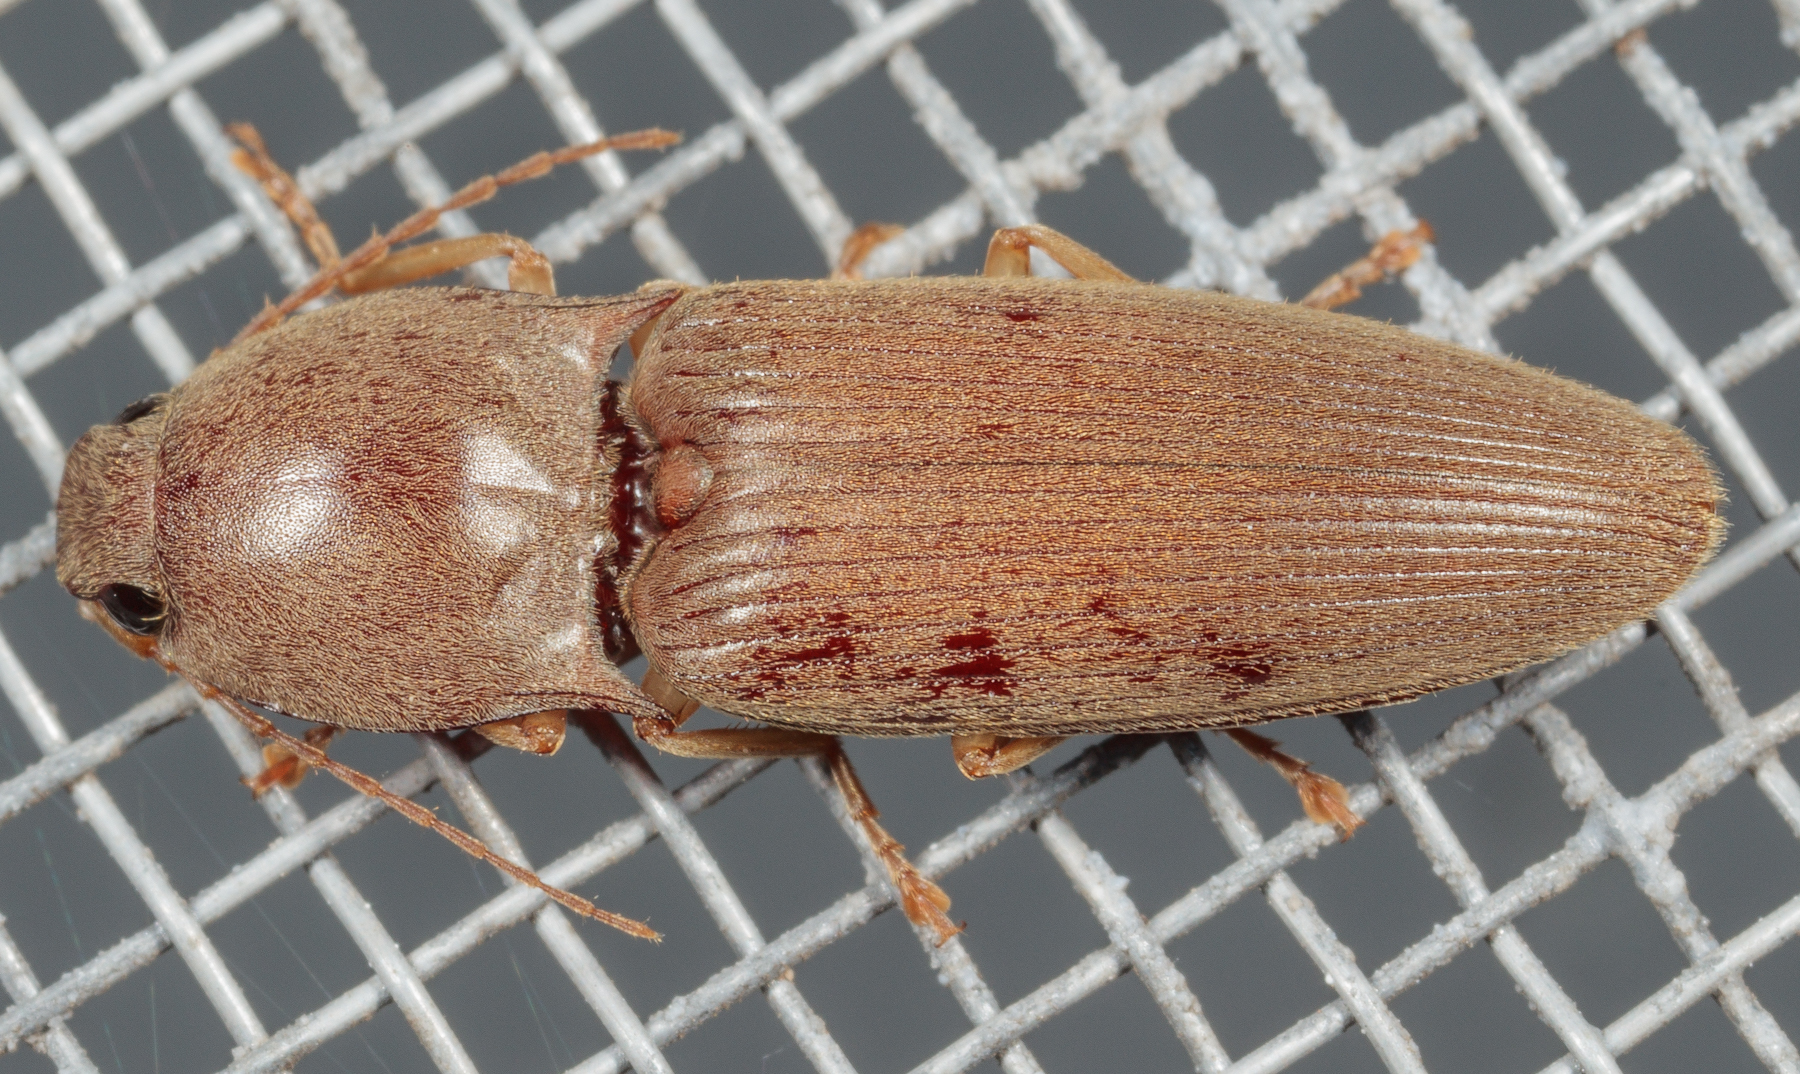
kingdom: Animalia
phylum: Arthropoda
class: Insecta
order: Coleoptera
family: Elateridae
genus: Monocrepidius
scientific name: Monocrepidius lividus
